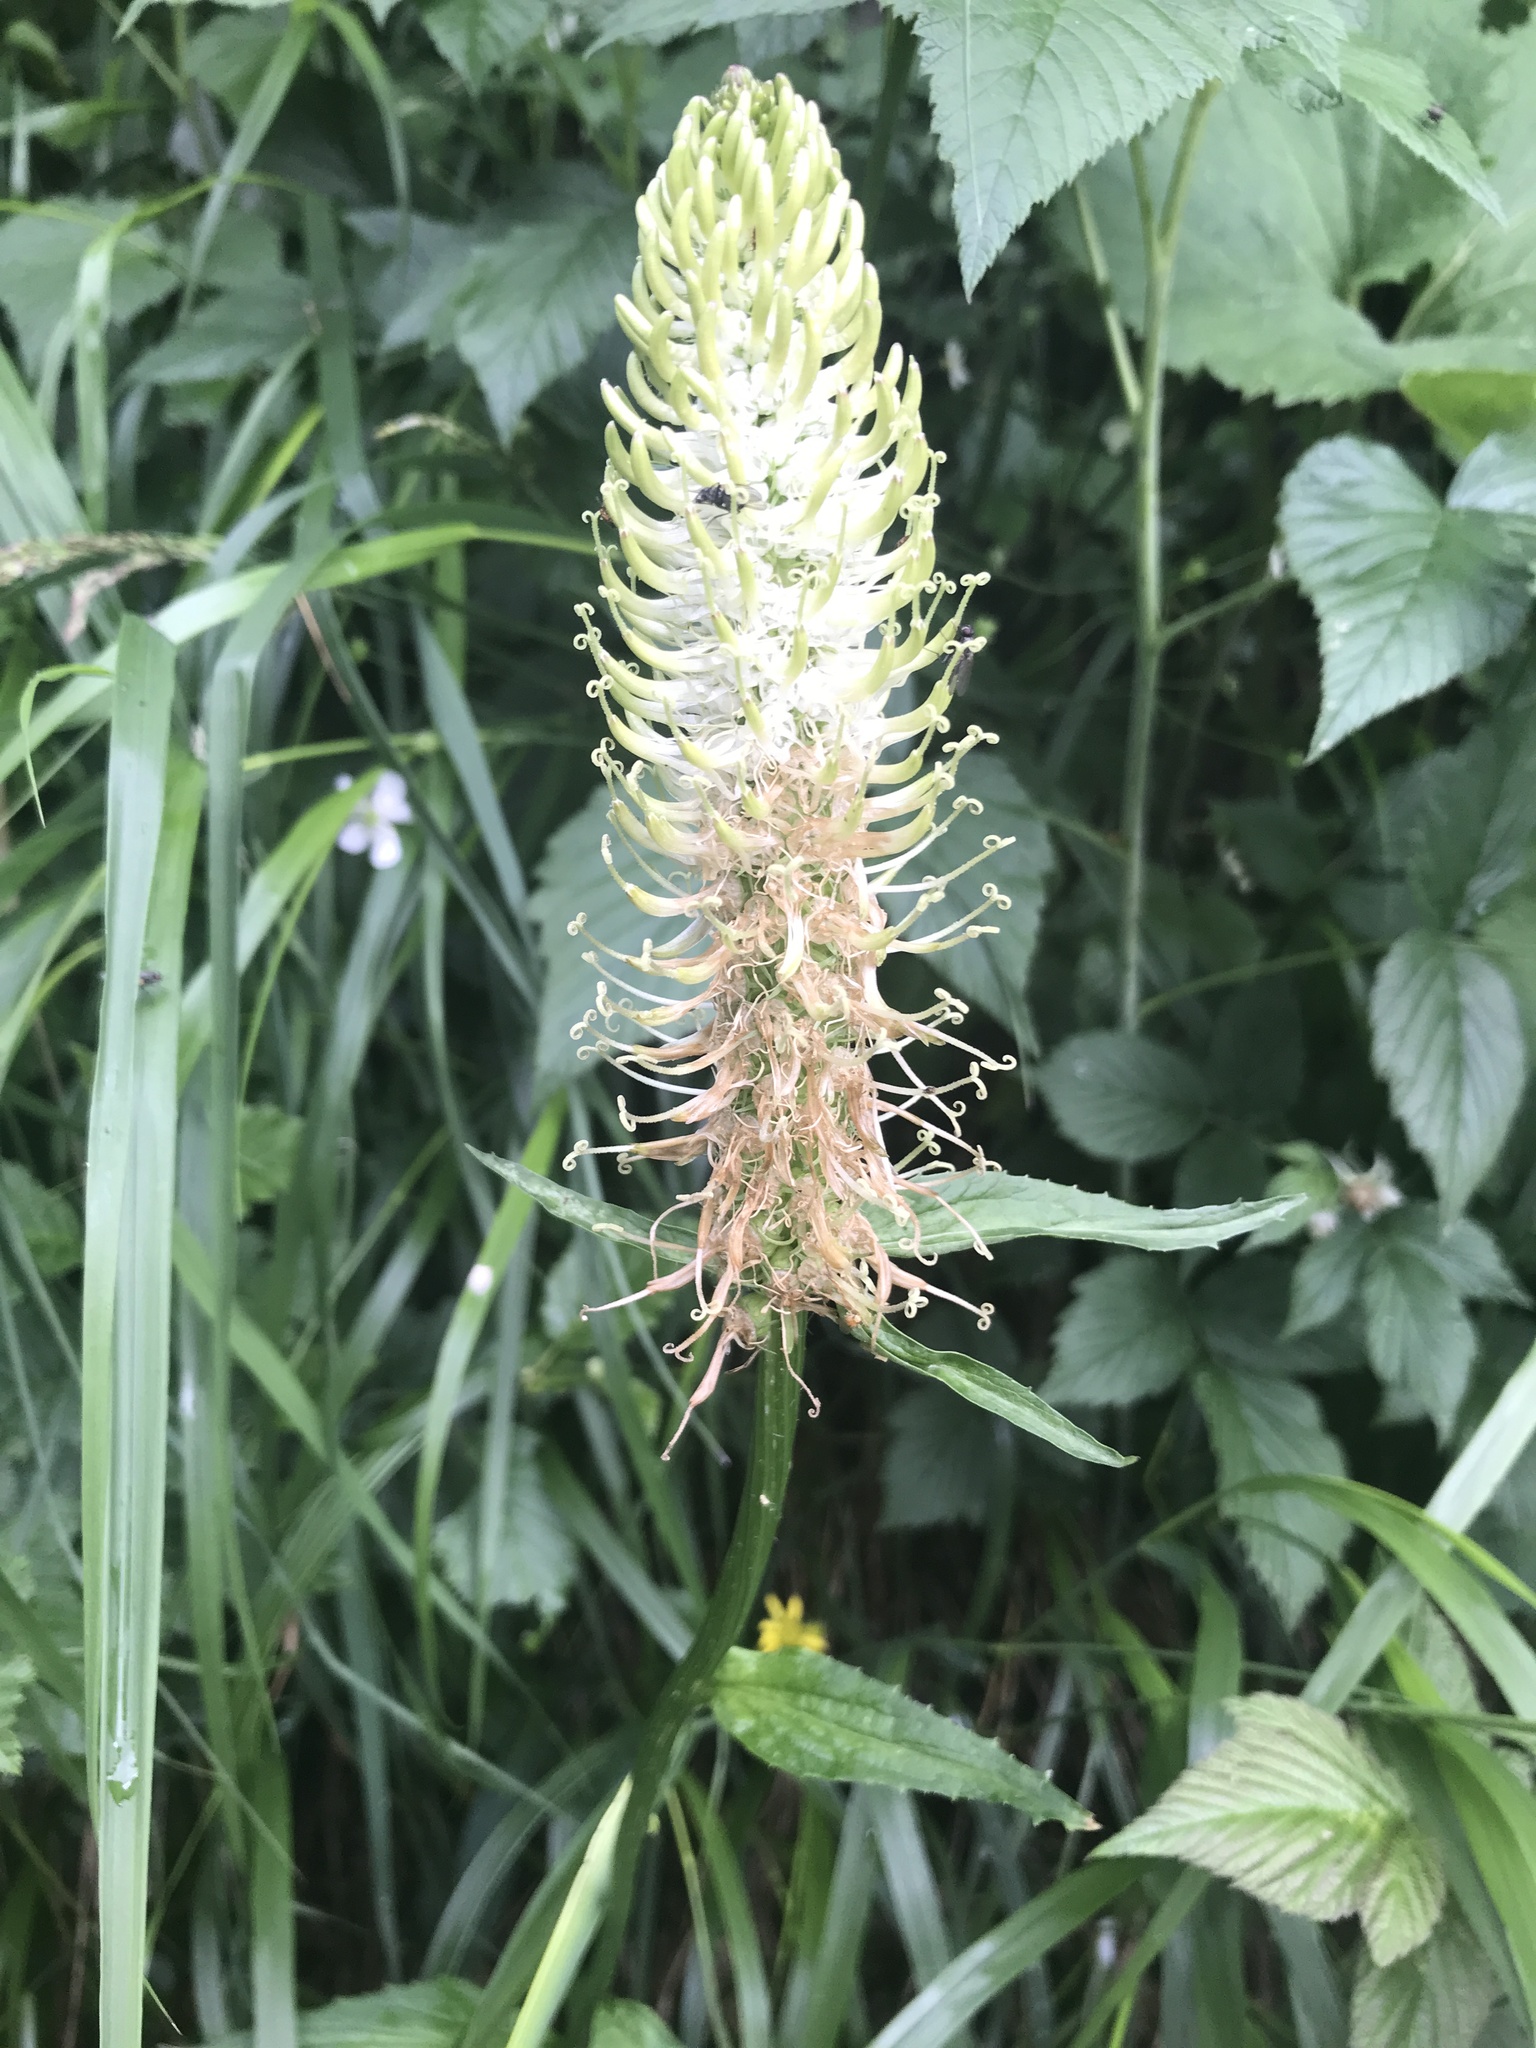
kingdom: Plantae
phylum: Tracheophyta
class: Magnoliopsida
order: Asterales
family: Campanulaceae
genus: Phyteuma
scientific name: Phyteuma spicatum
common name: Spiked rampion
